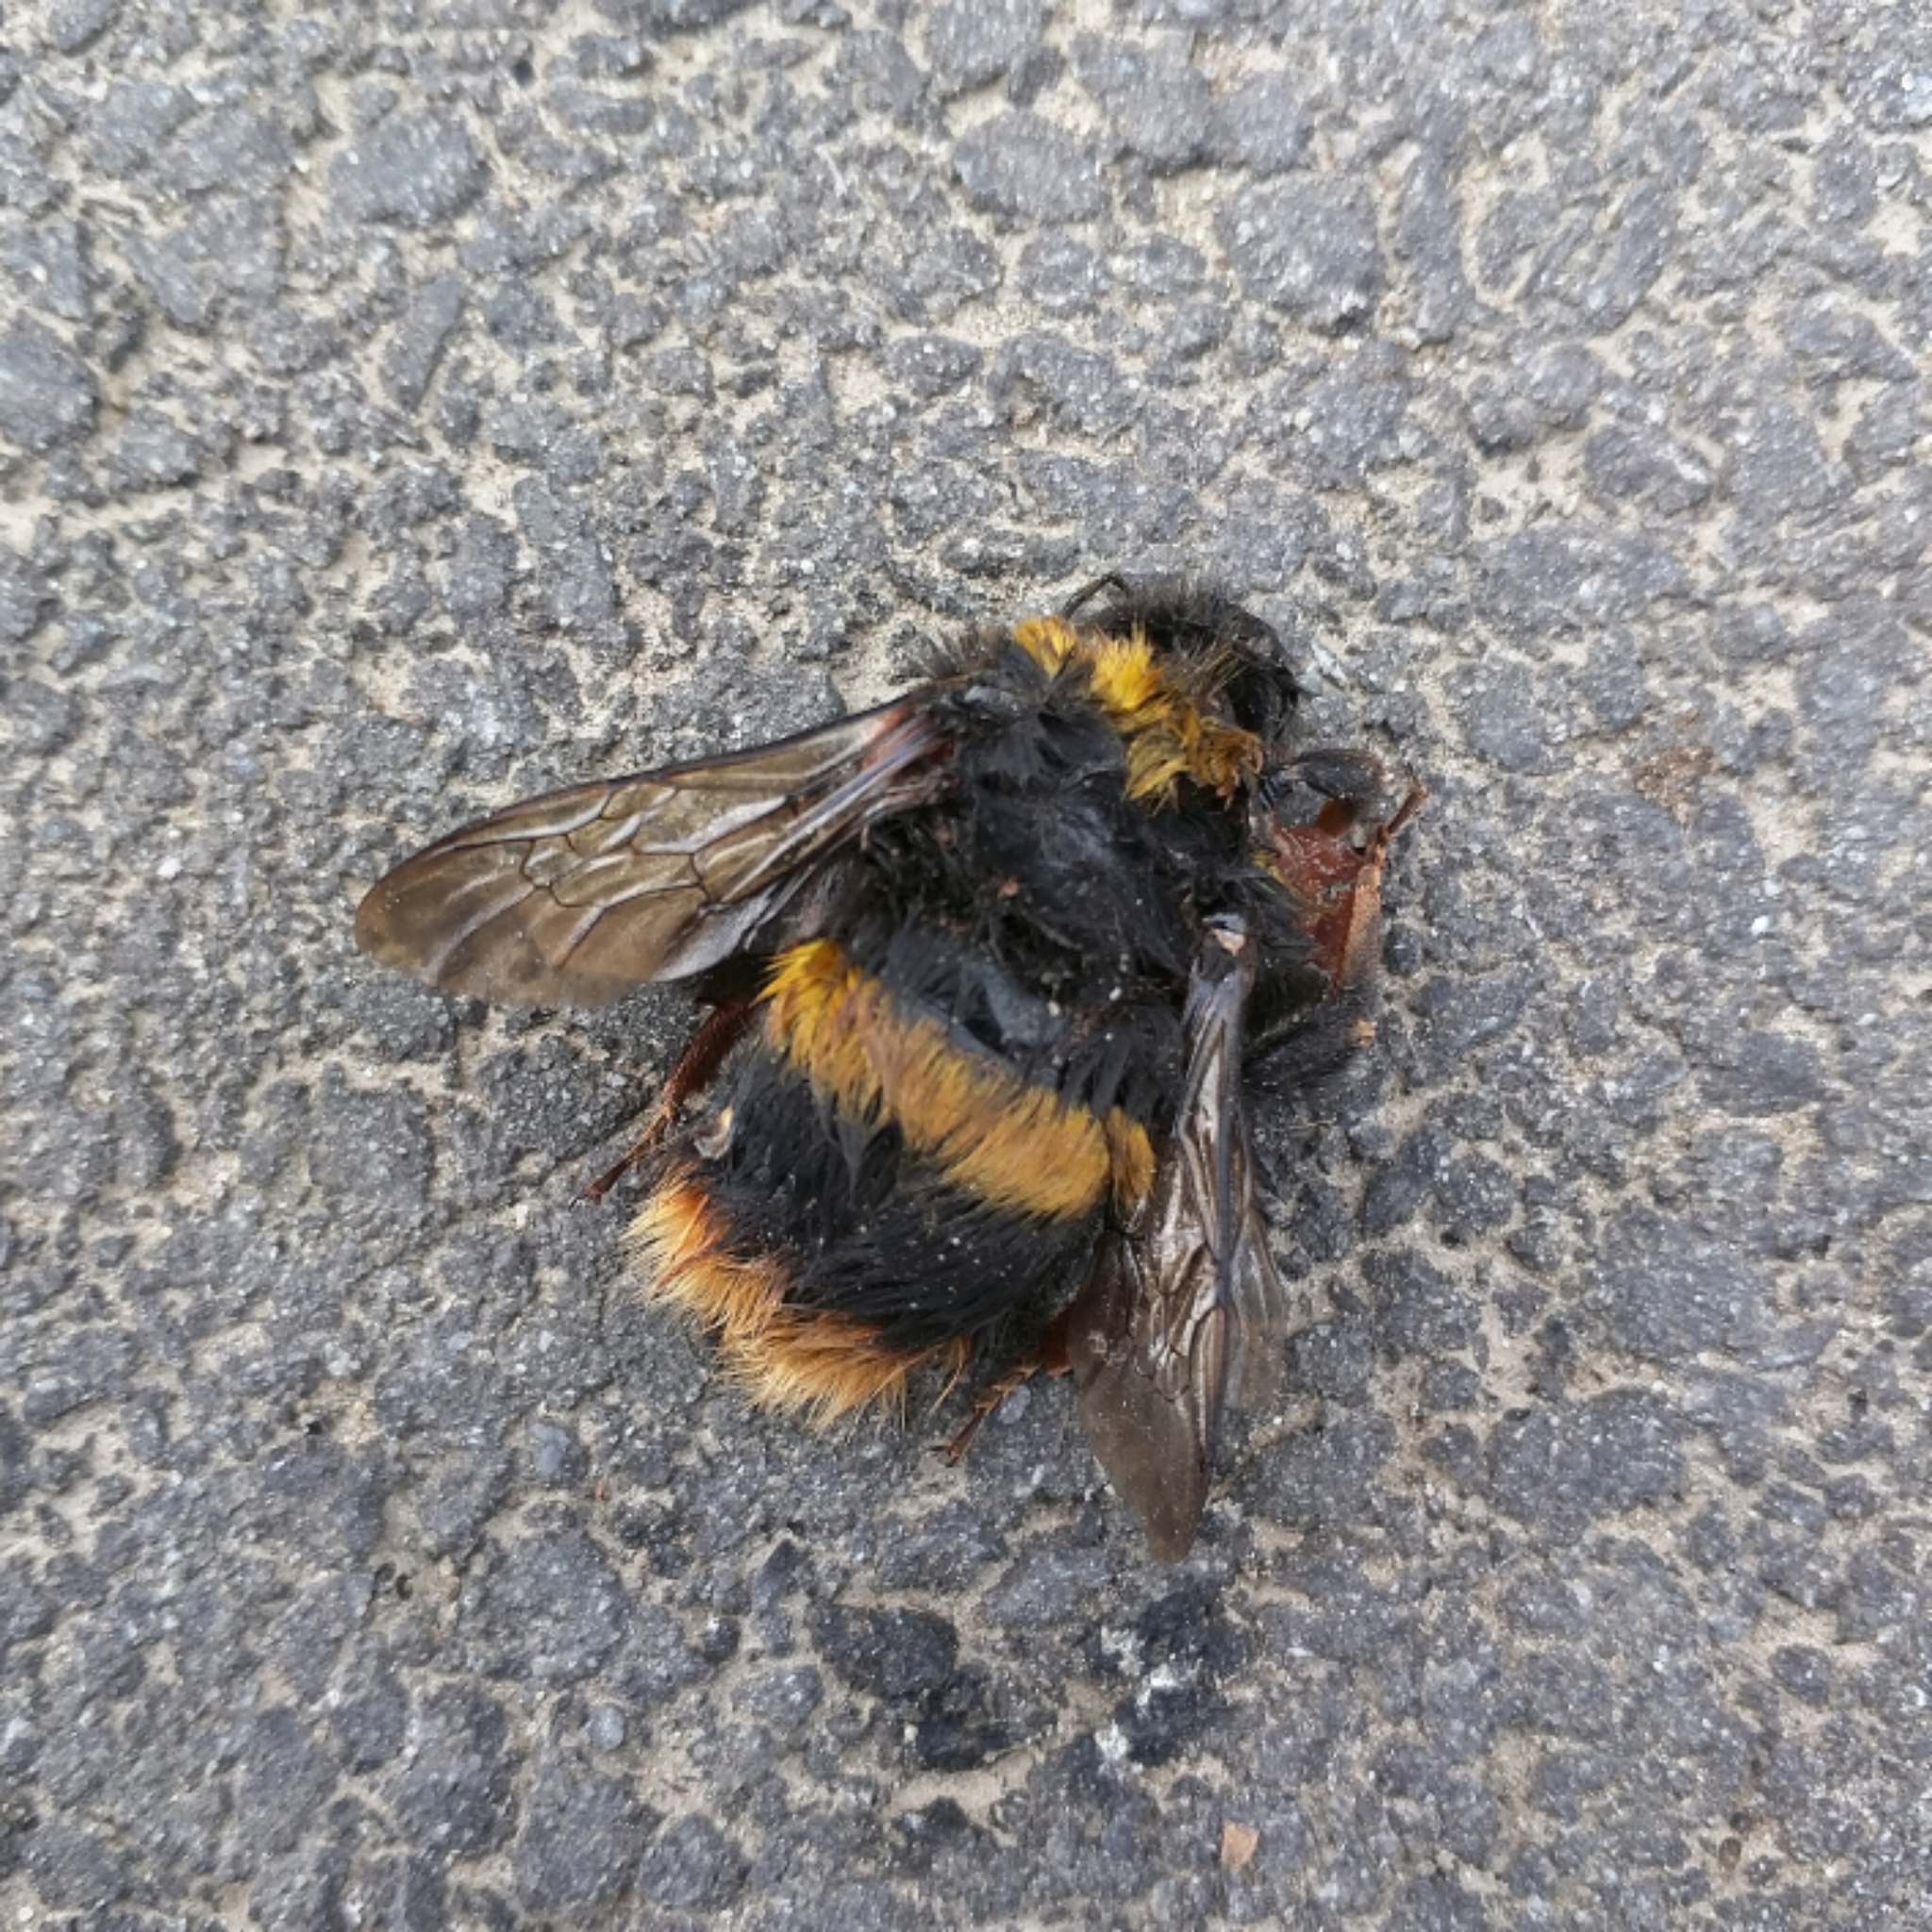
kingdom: Animalia
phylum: Arthropoda
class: Insecta
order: Hymenoptera
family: Apidae
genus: Bombus
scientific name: Bombus terrestris
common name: Buff-tailed bumblebee
